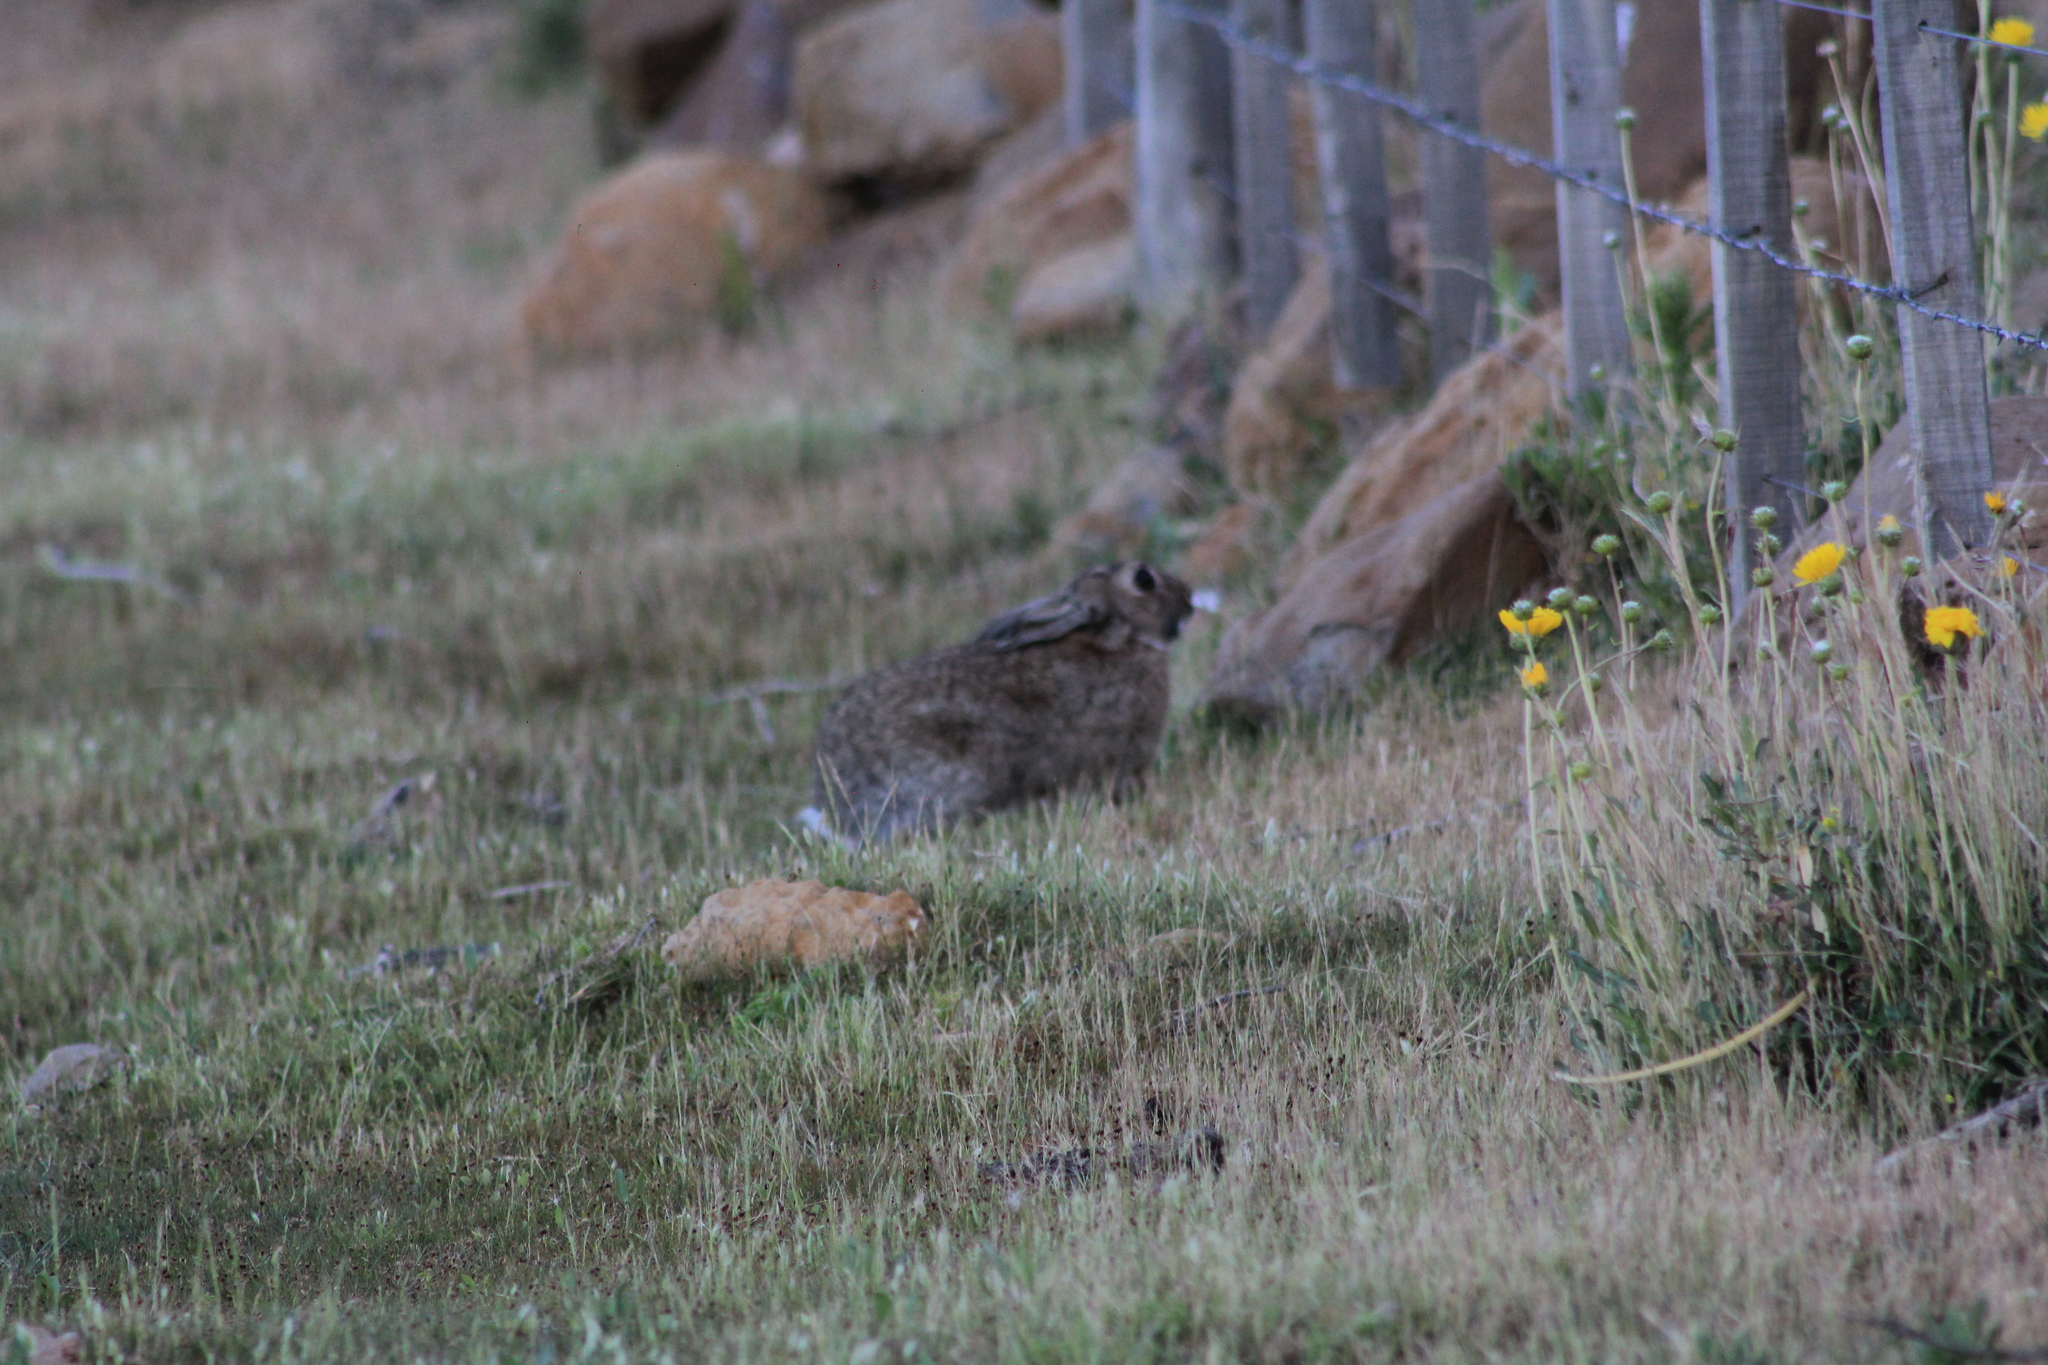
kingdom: Animalia
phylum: Chordata
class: Mammalia
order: Lagomorpha
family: Leporidae
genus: Oryctolagus
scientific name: Oryctolagus cuniculus
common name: European rabbit
